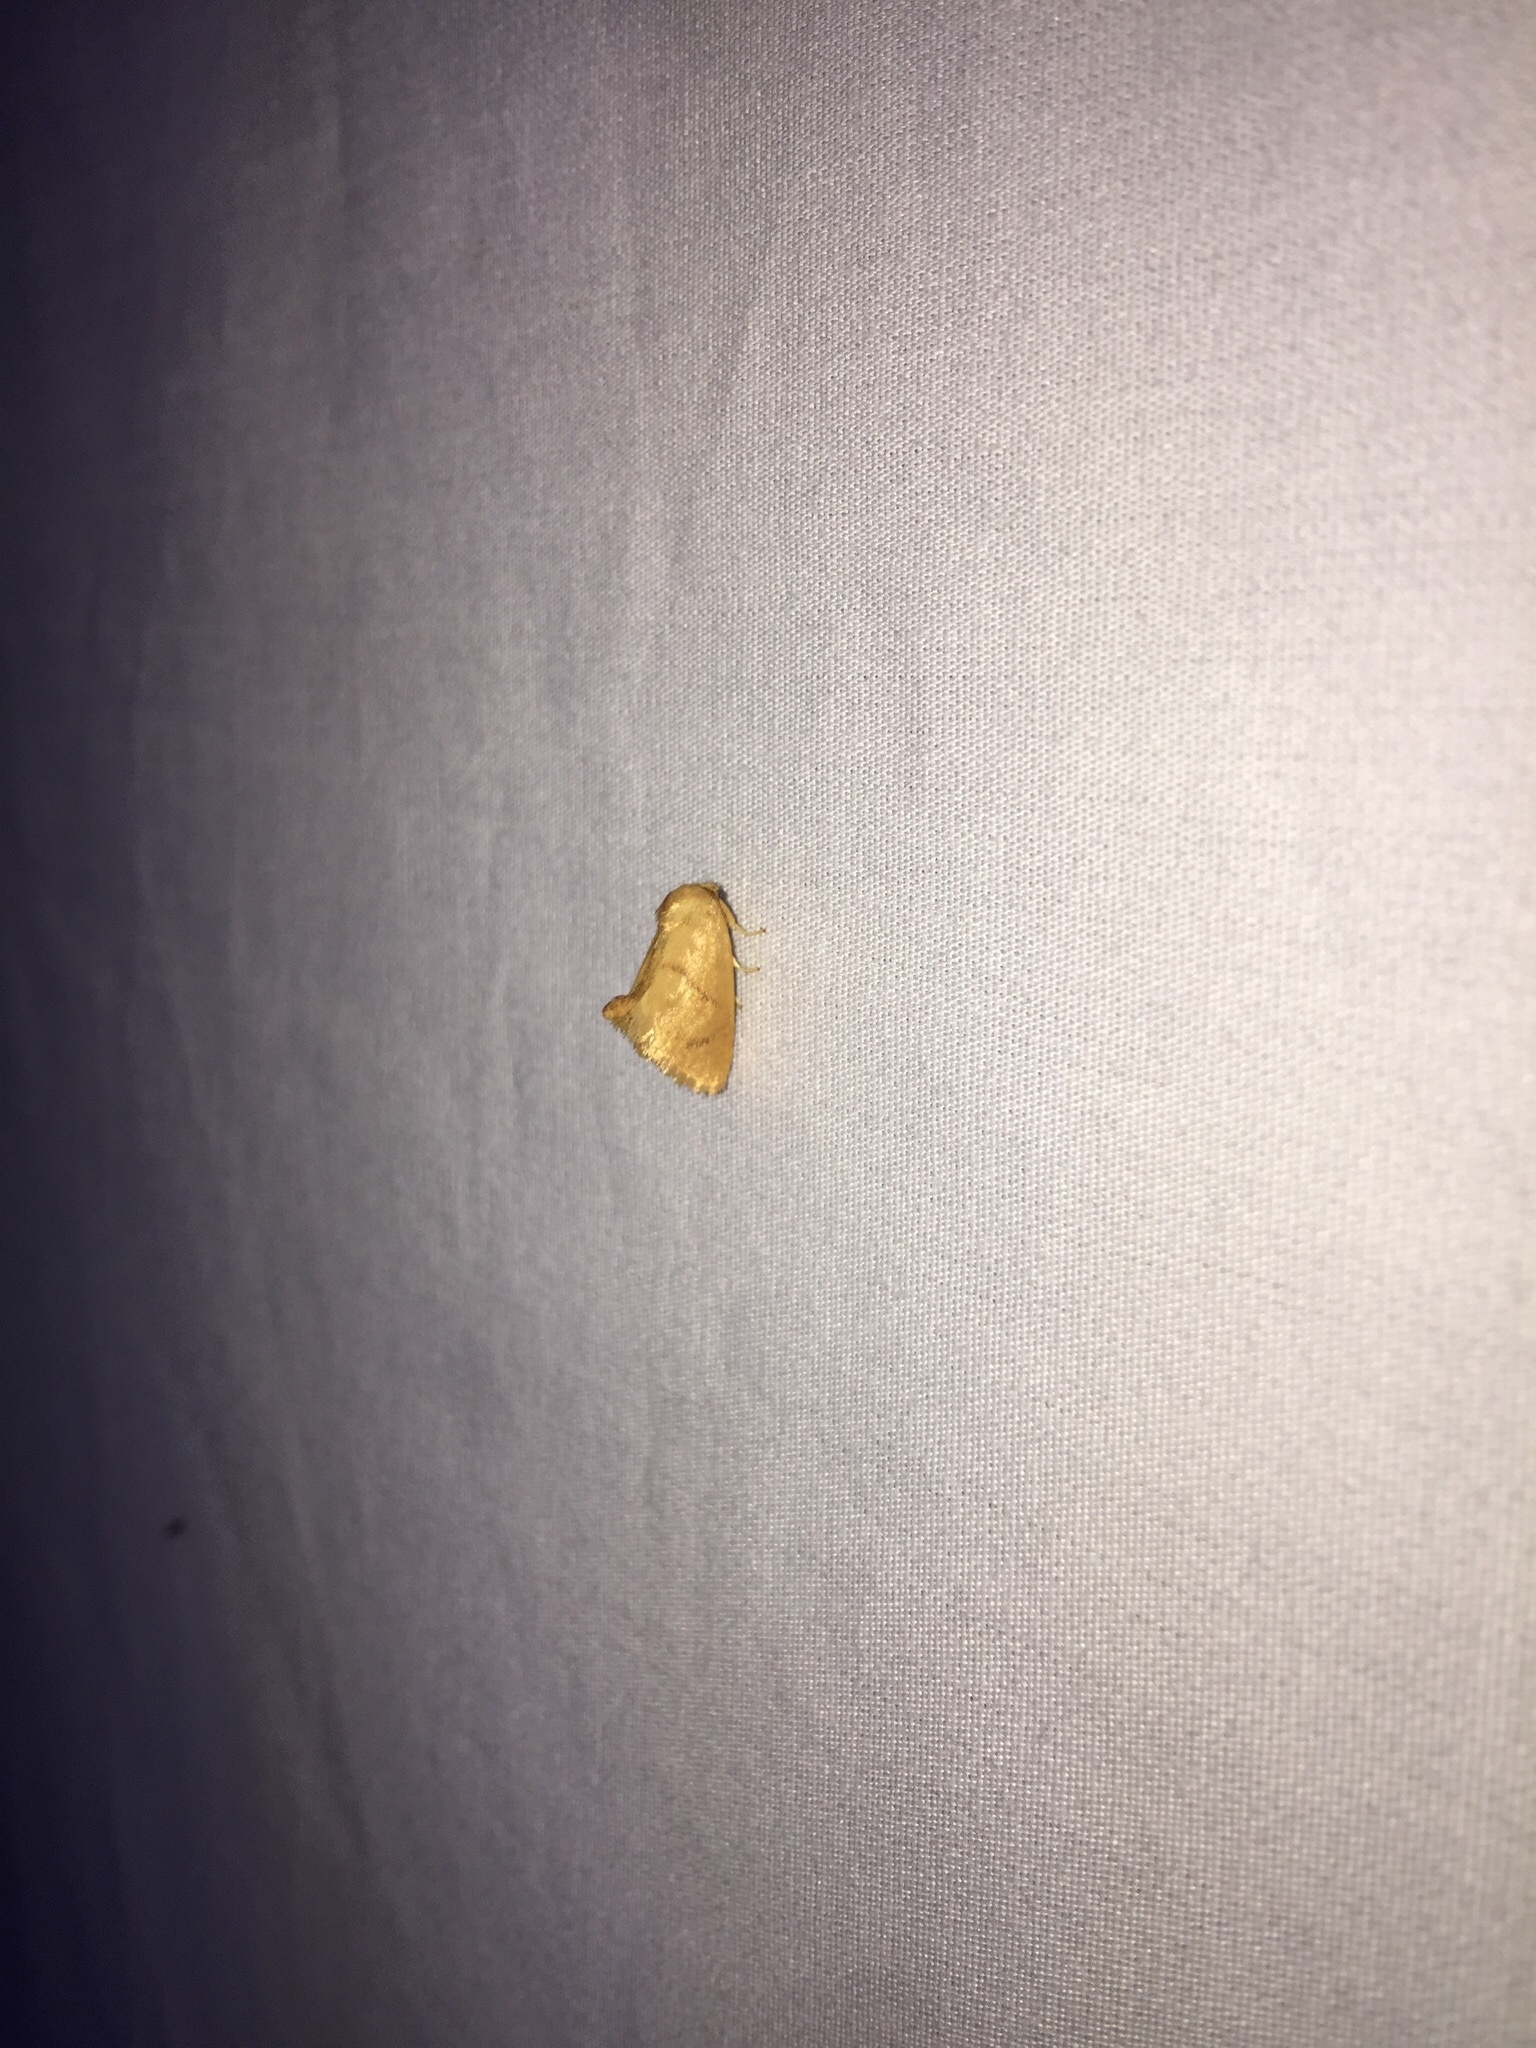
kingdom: Animalia
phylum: Arthropoda
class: Insecta
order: Lepidoptera
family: Limacodidae
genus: Tortricidia
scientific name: Tortricidia flexuosa
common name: Abbreviated button slug moth
